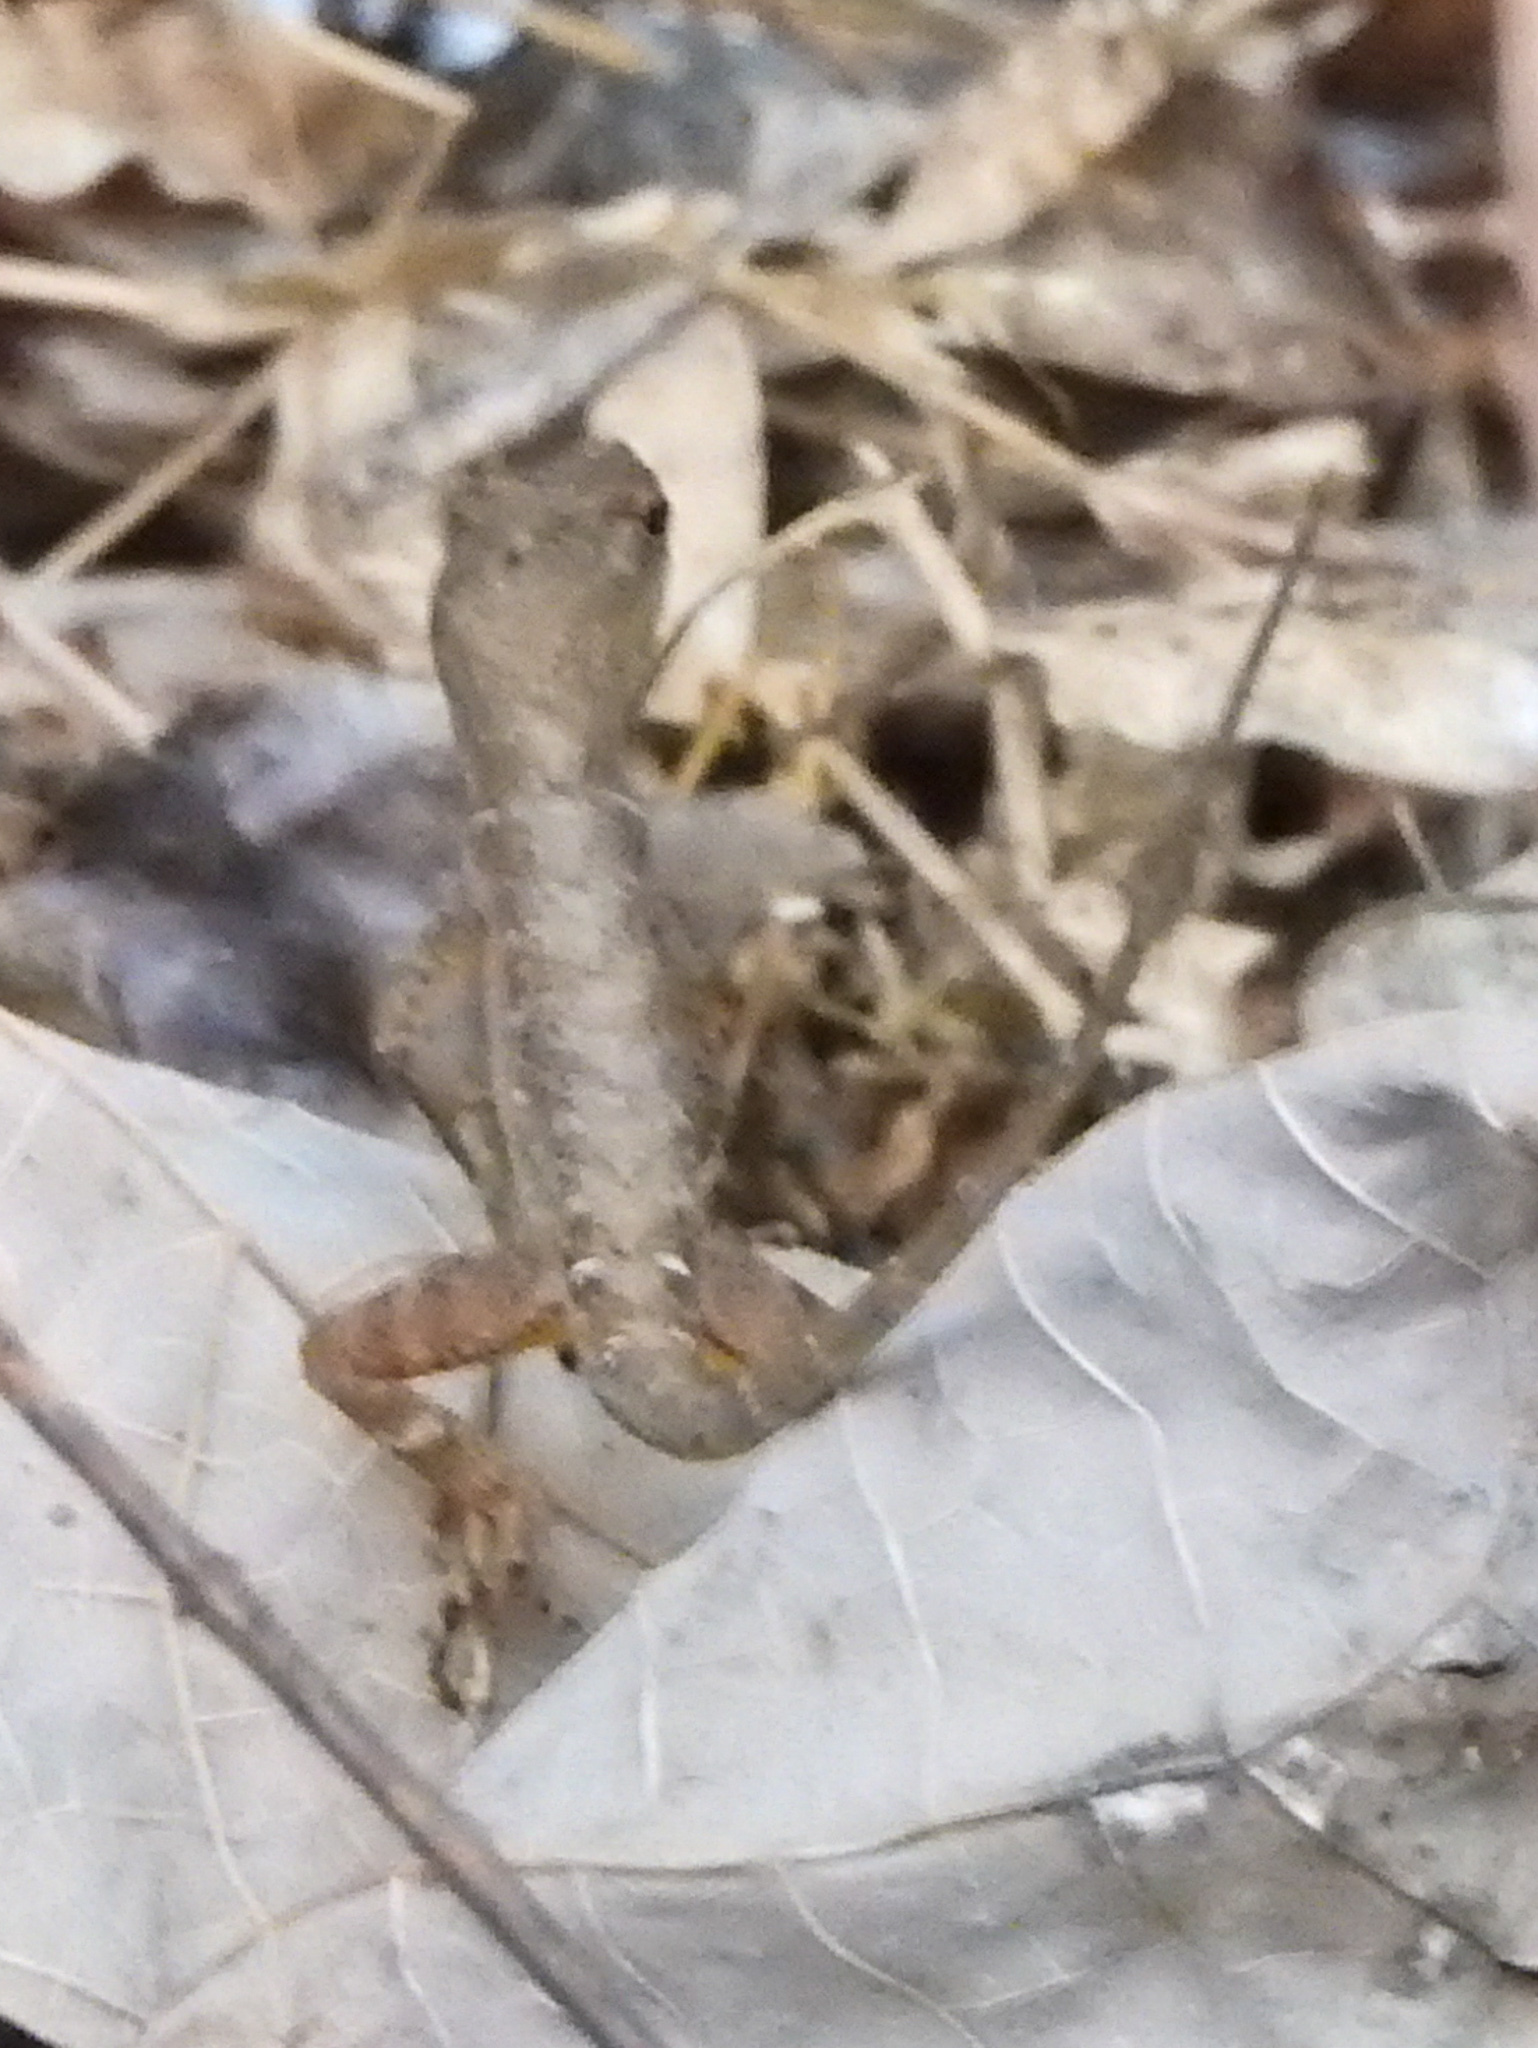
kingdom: Animalia
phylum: Chordata
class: Squamata
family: Dactyloidae
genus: Anolis
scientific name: Anolis cupreus
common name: Copper anole
